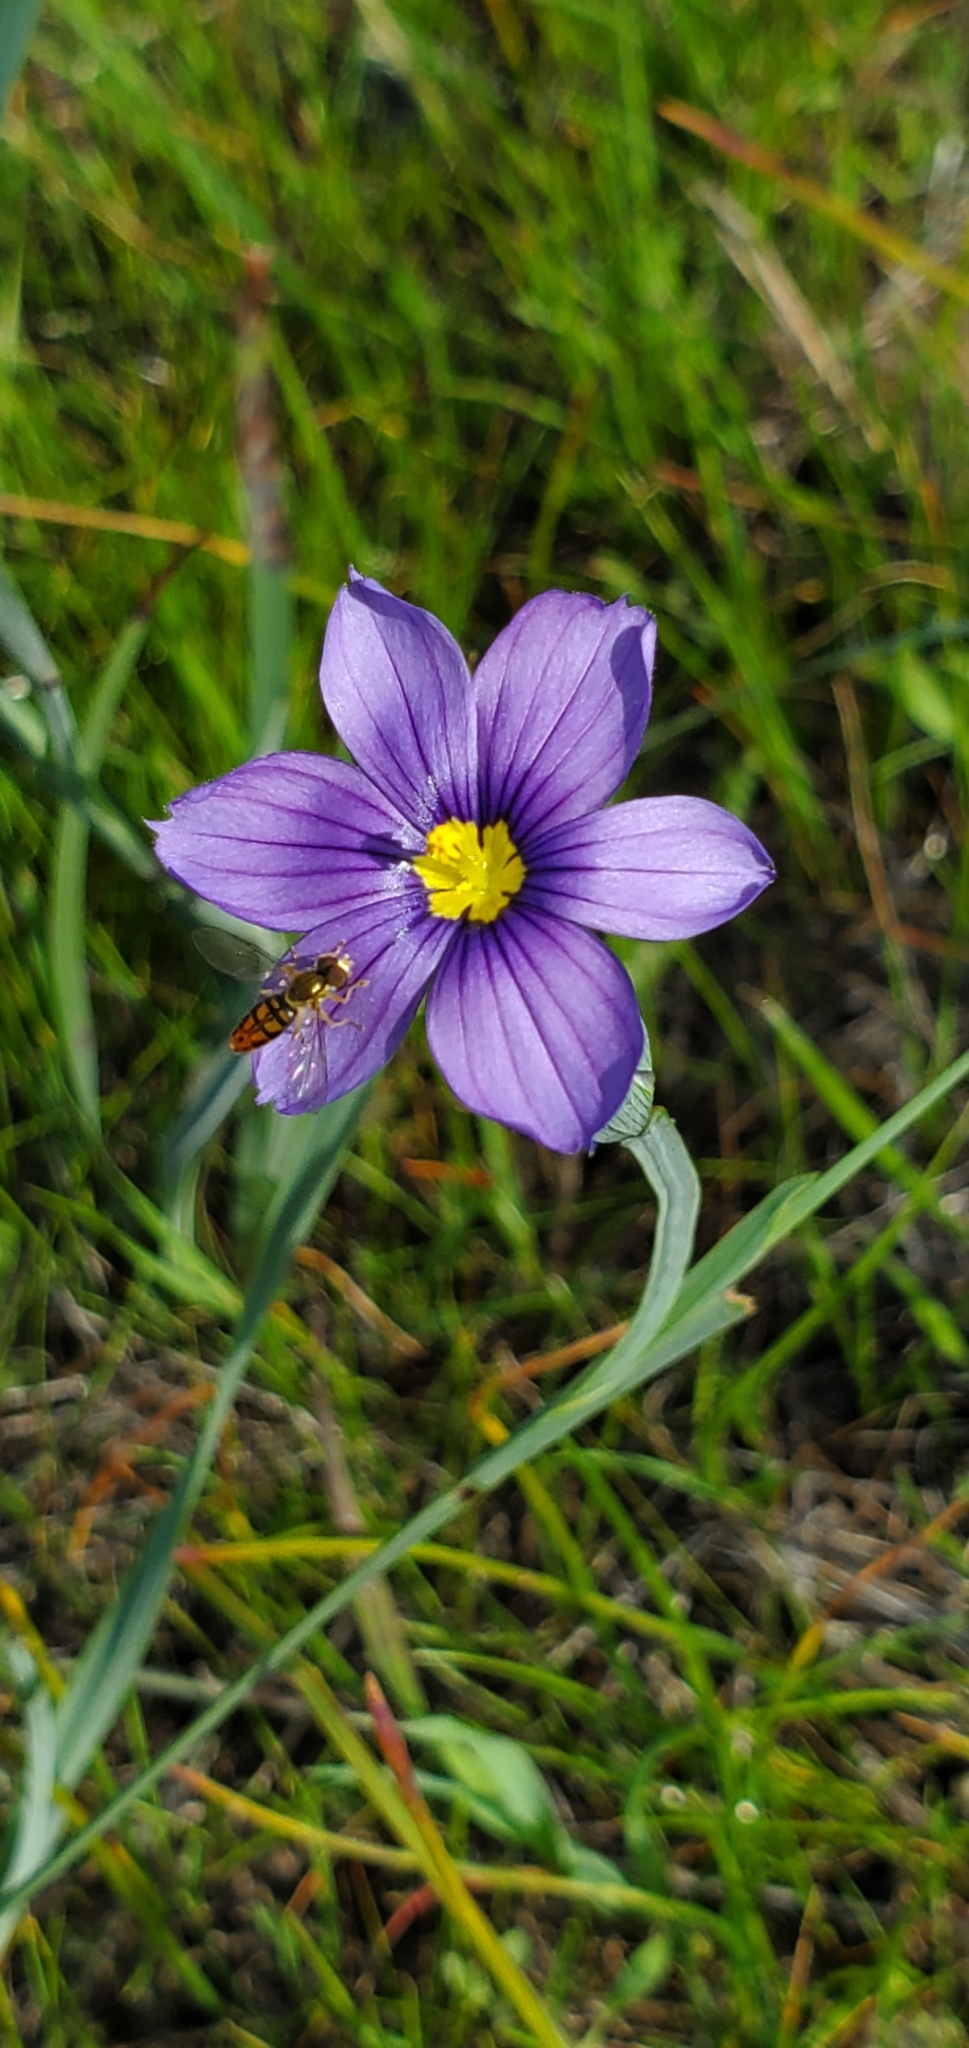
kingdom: Plantae
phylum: Tracheophyta
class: Liliopsida
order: Asparagales
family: Iridaceae
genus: Sisyrinchium
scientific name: Sisyrinchium bellum
